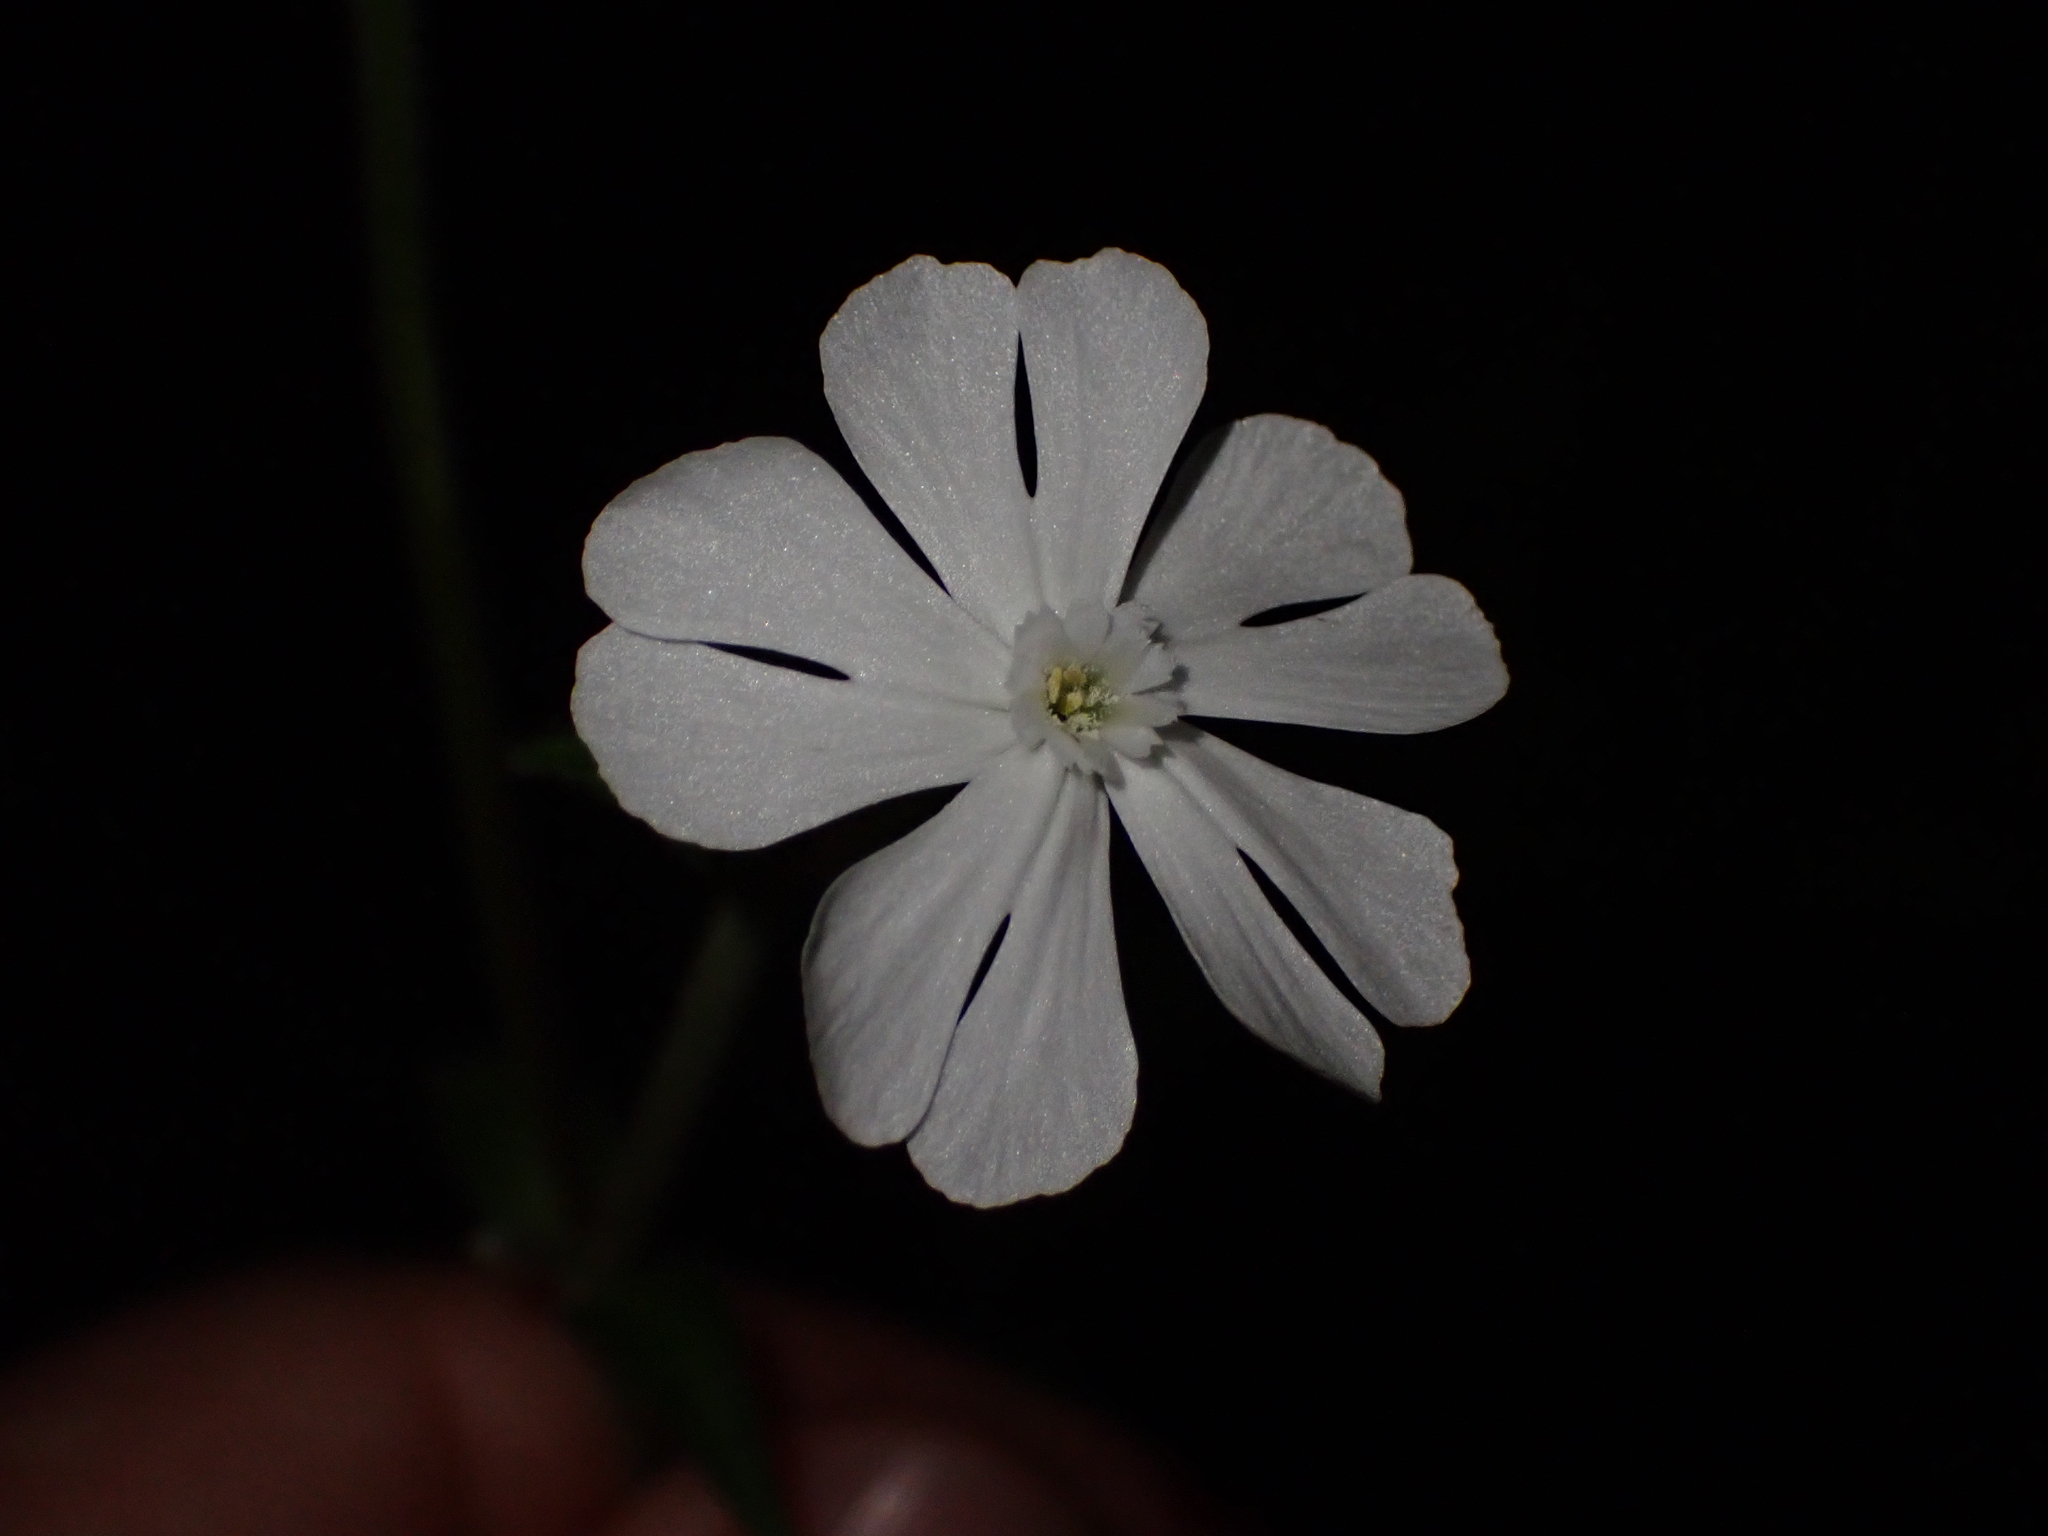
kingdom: Plantae
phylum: Tracheophyta
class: Magnoliopsida
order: Caryophyllales
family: Caryophyllaceae
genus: Silene
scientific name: Silene latifolia
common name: White campion
